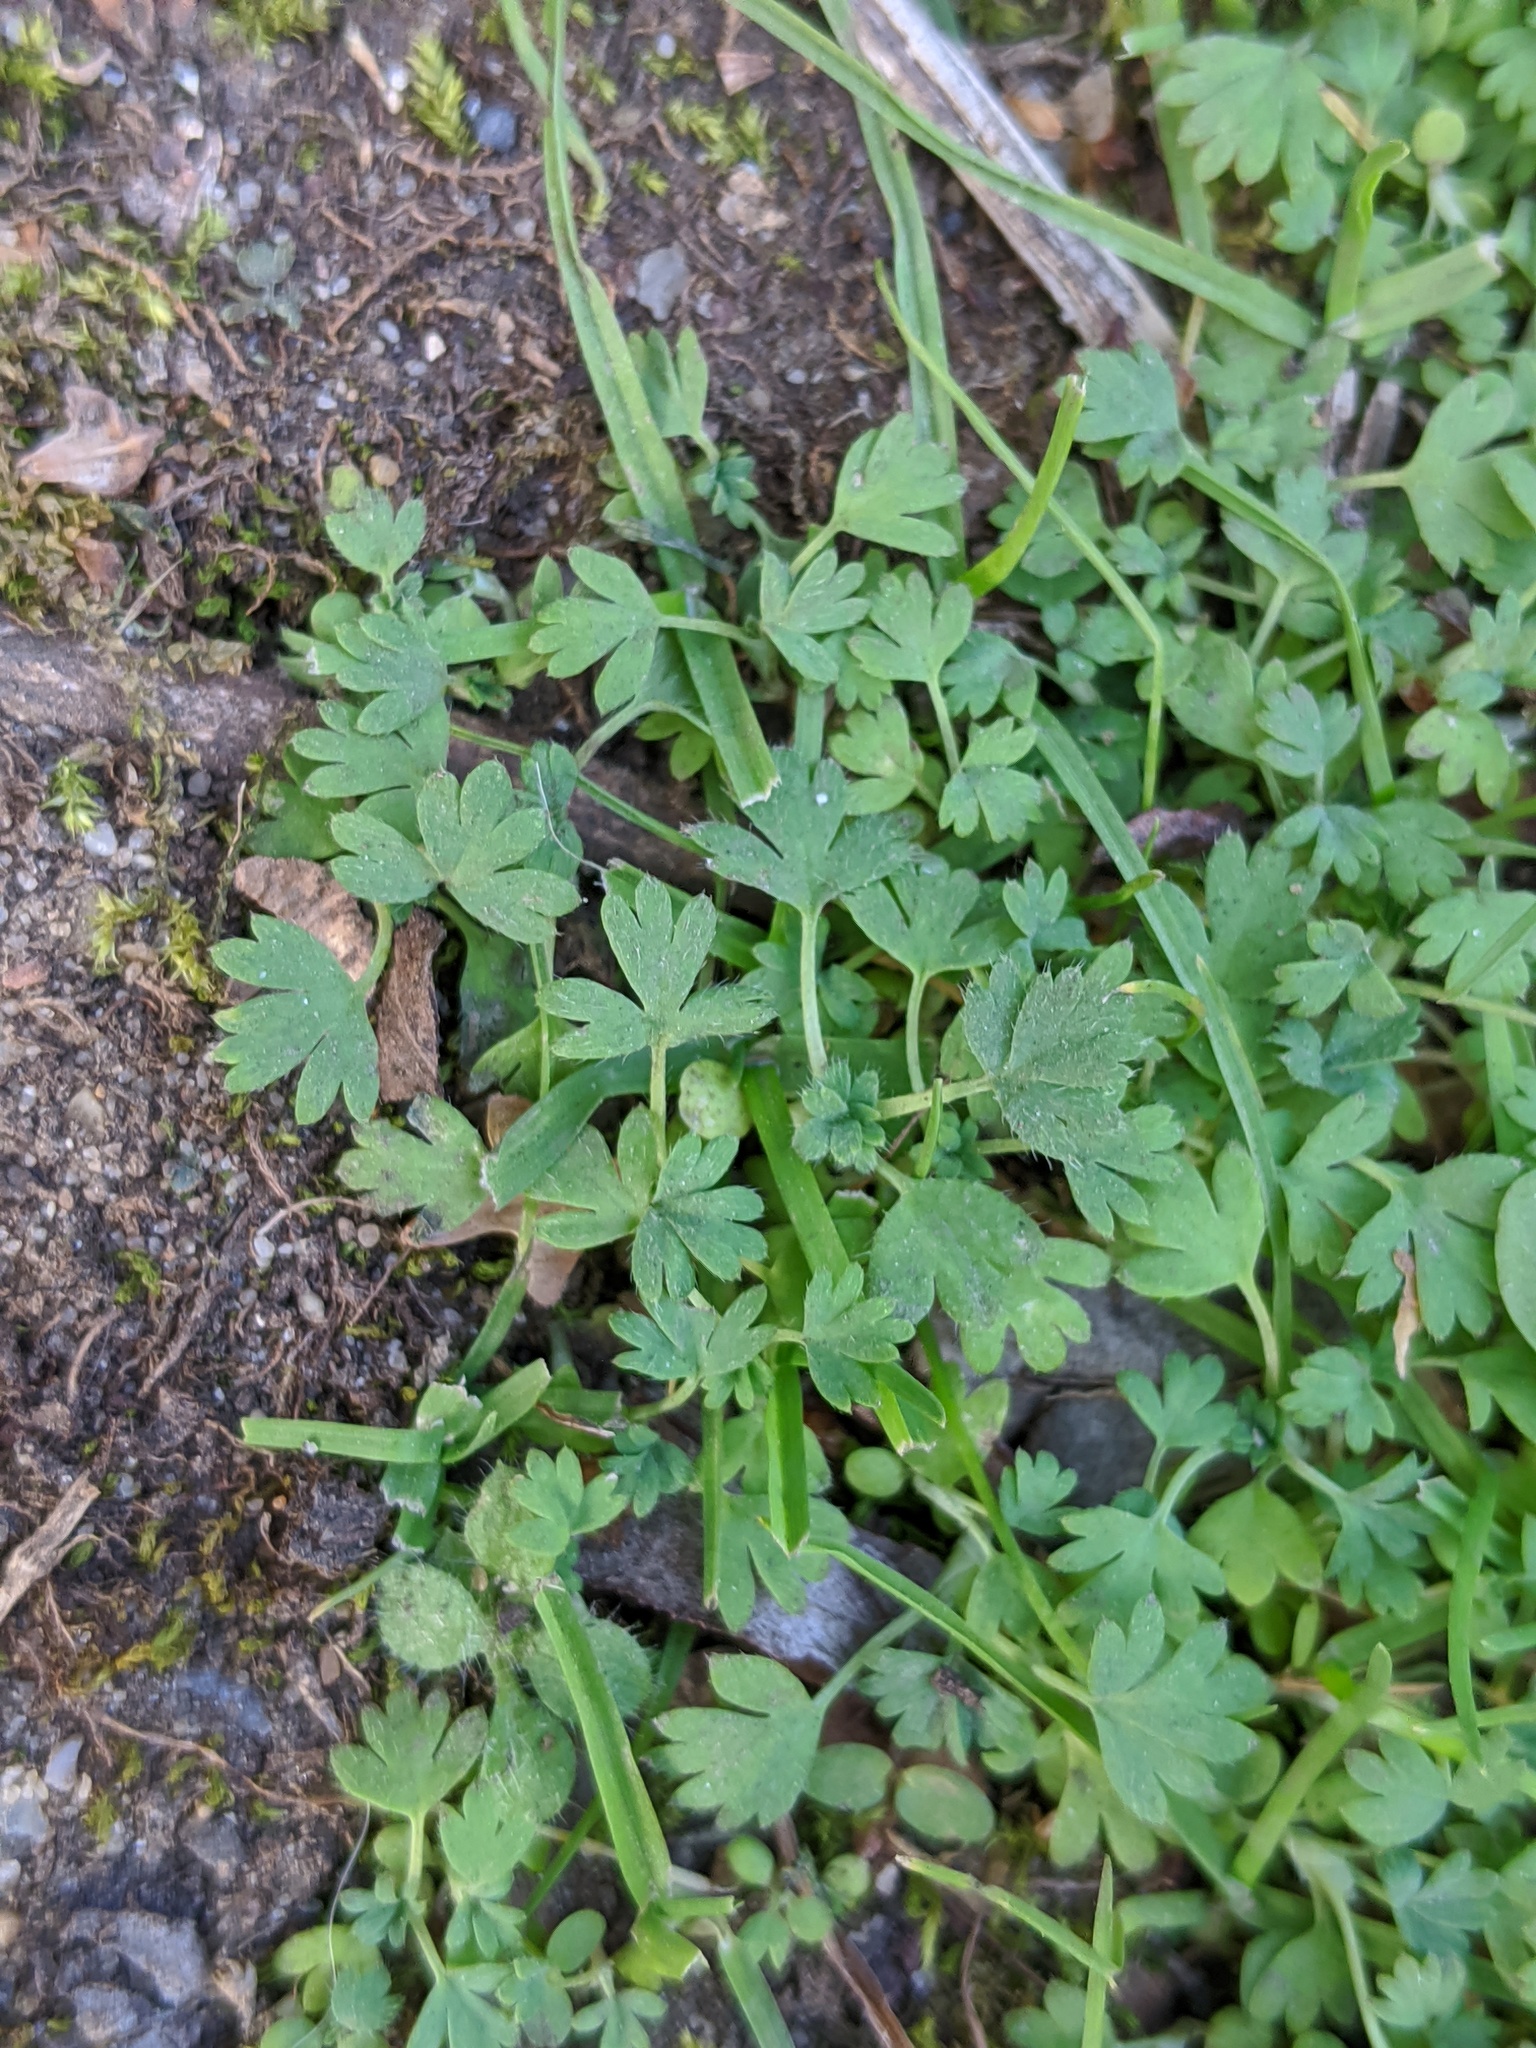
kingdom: Plantae
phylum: Tracheophyta
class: Magnoliopsida
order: Rosales
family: Rosaceae
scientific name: Rosaceae
